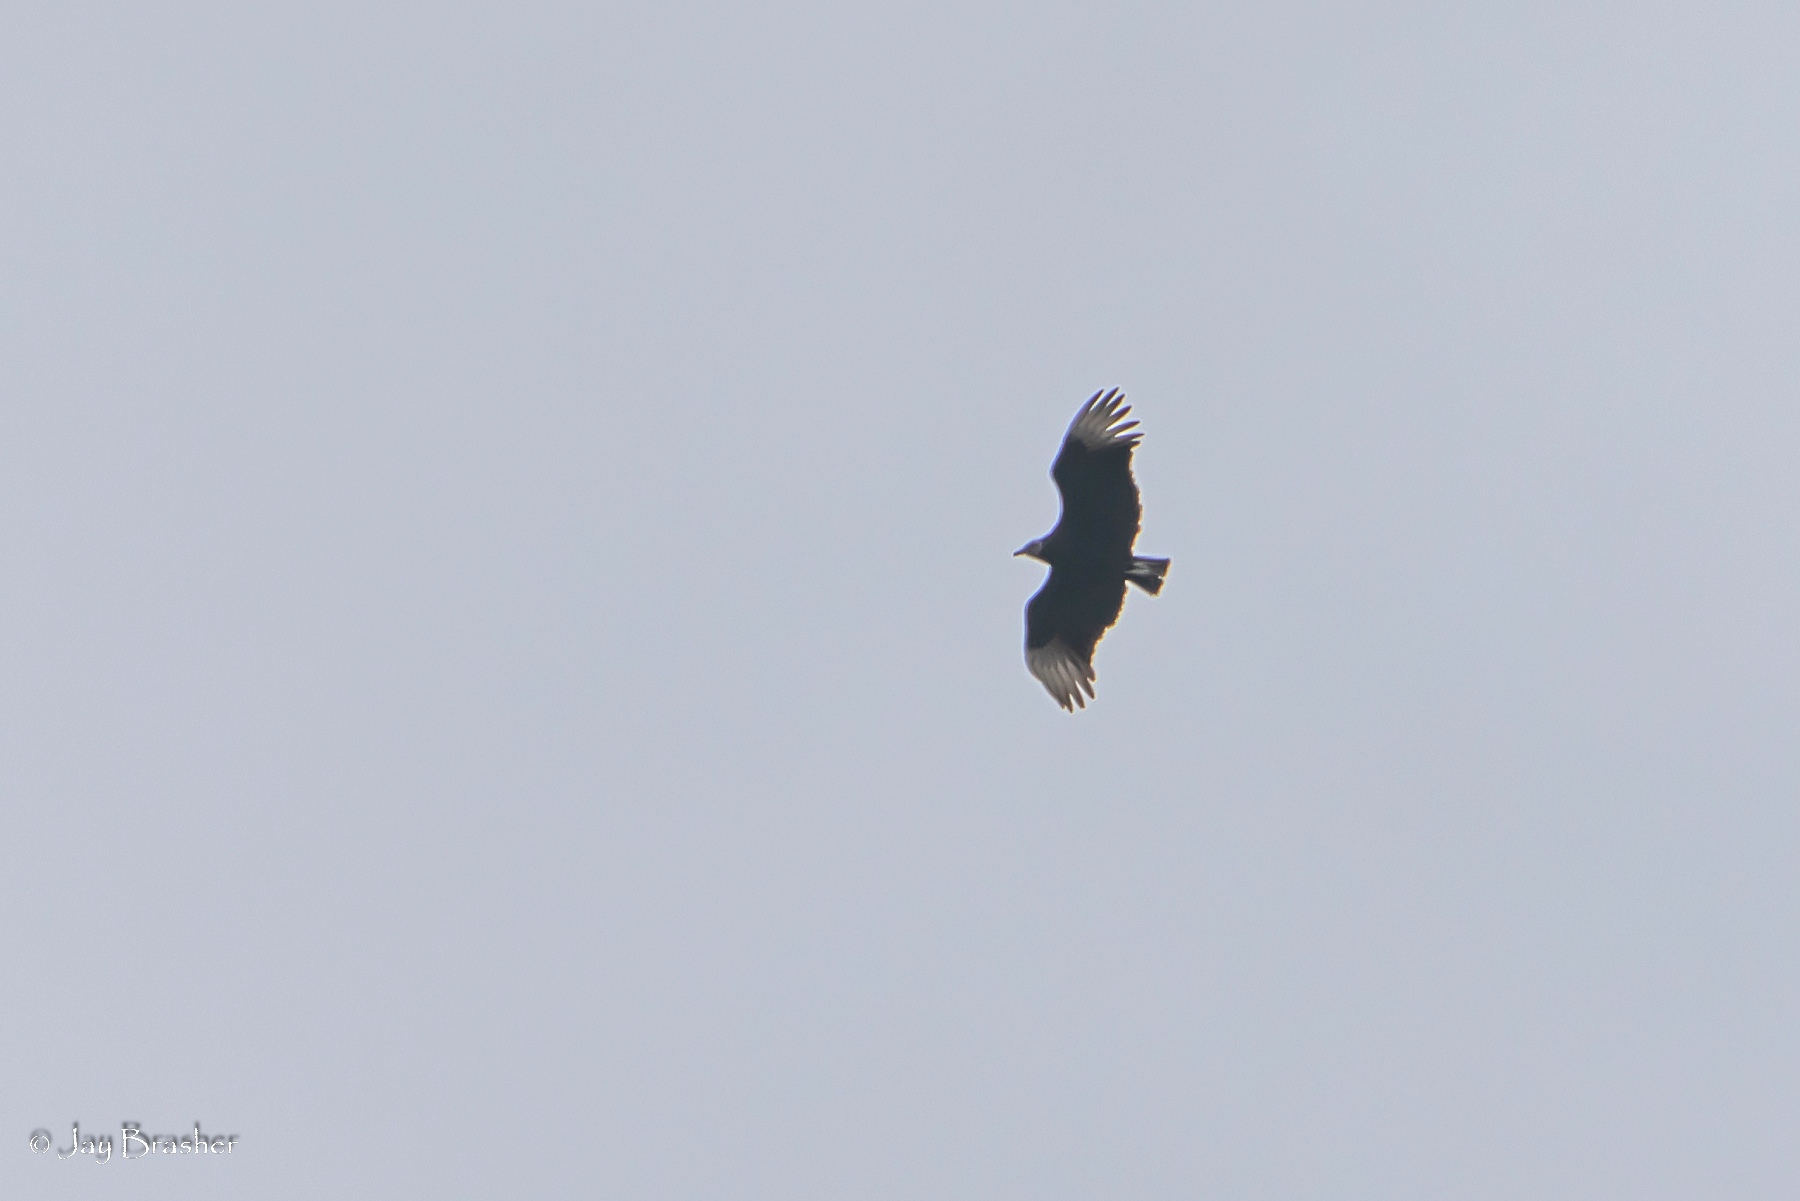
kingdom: Animalia
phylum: Chordata
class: Aves
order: Accipitriformes
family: Cathartidae
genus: Coragyps
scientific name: Coragyps atratus
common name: Black vulture
